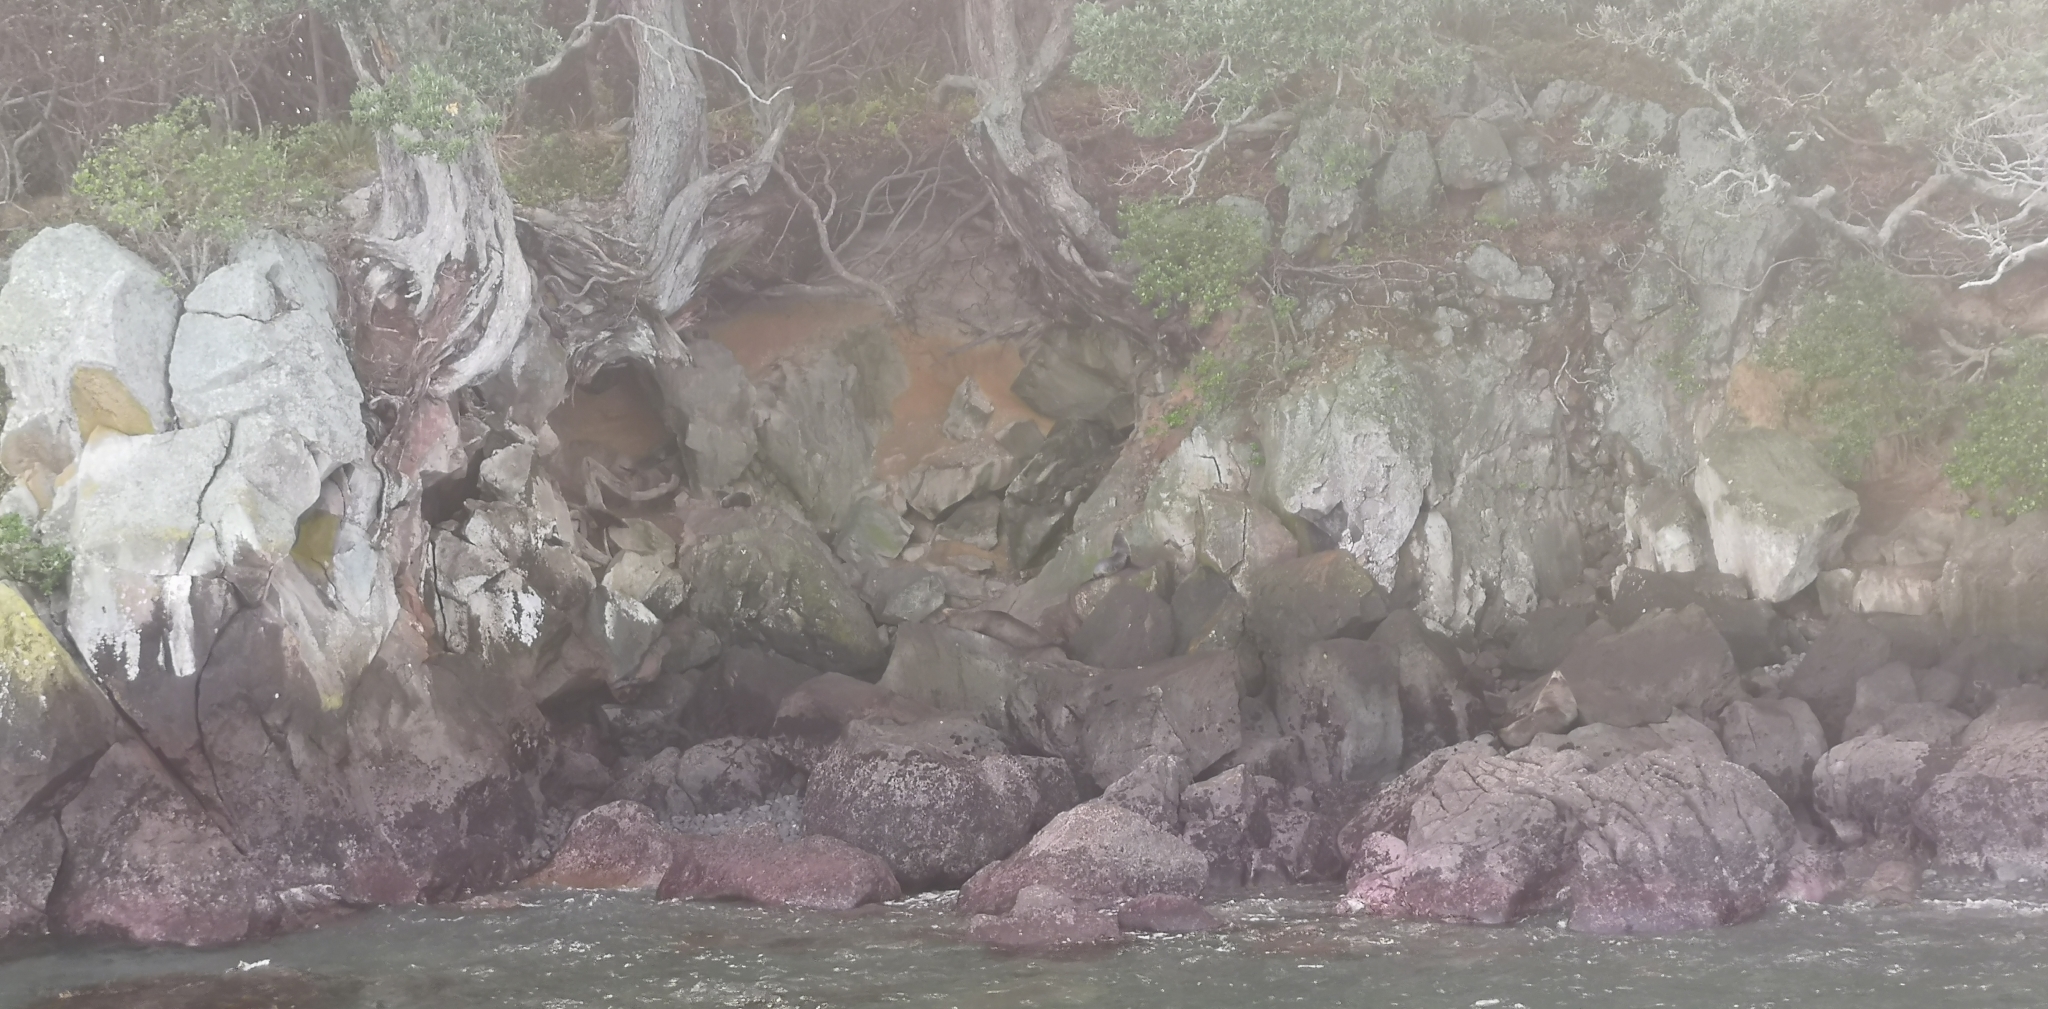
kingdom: Animalia
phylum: Chordata
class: Mammalia
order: Carnivora
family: Otariidae
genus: Arctocephalus
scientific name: Arctocephalus forsteri
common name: New zealand fur seal
